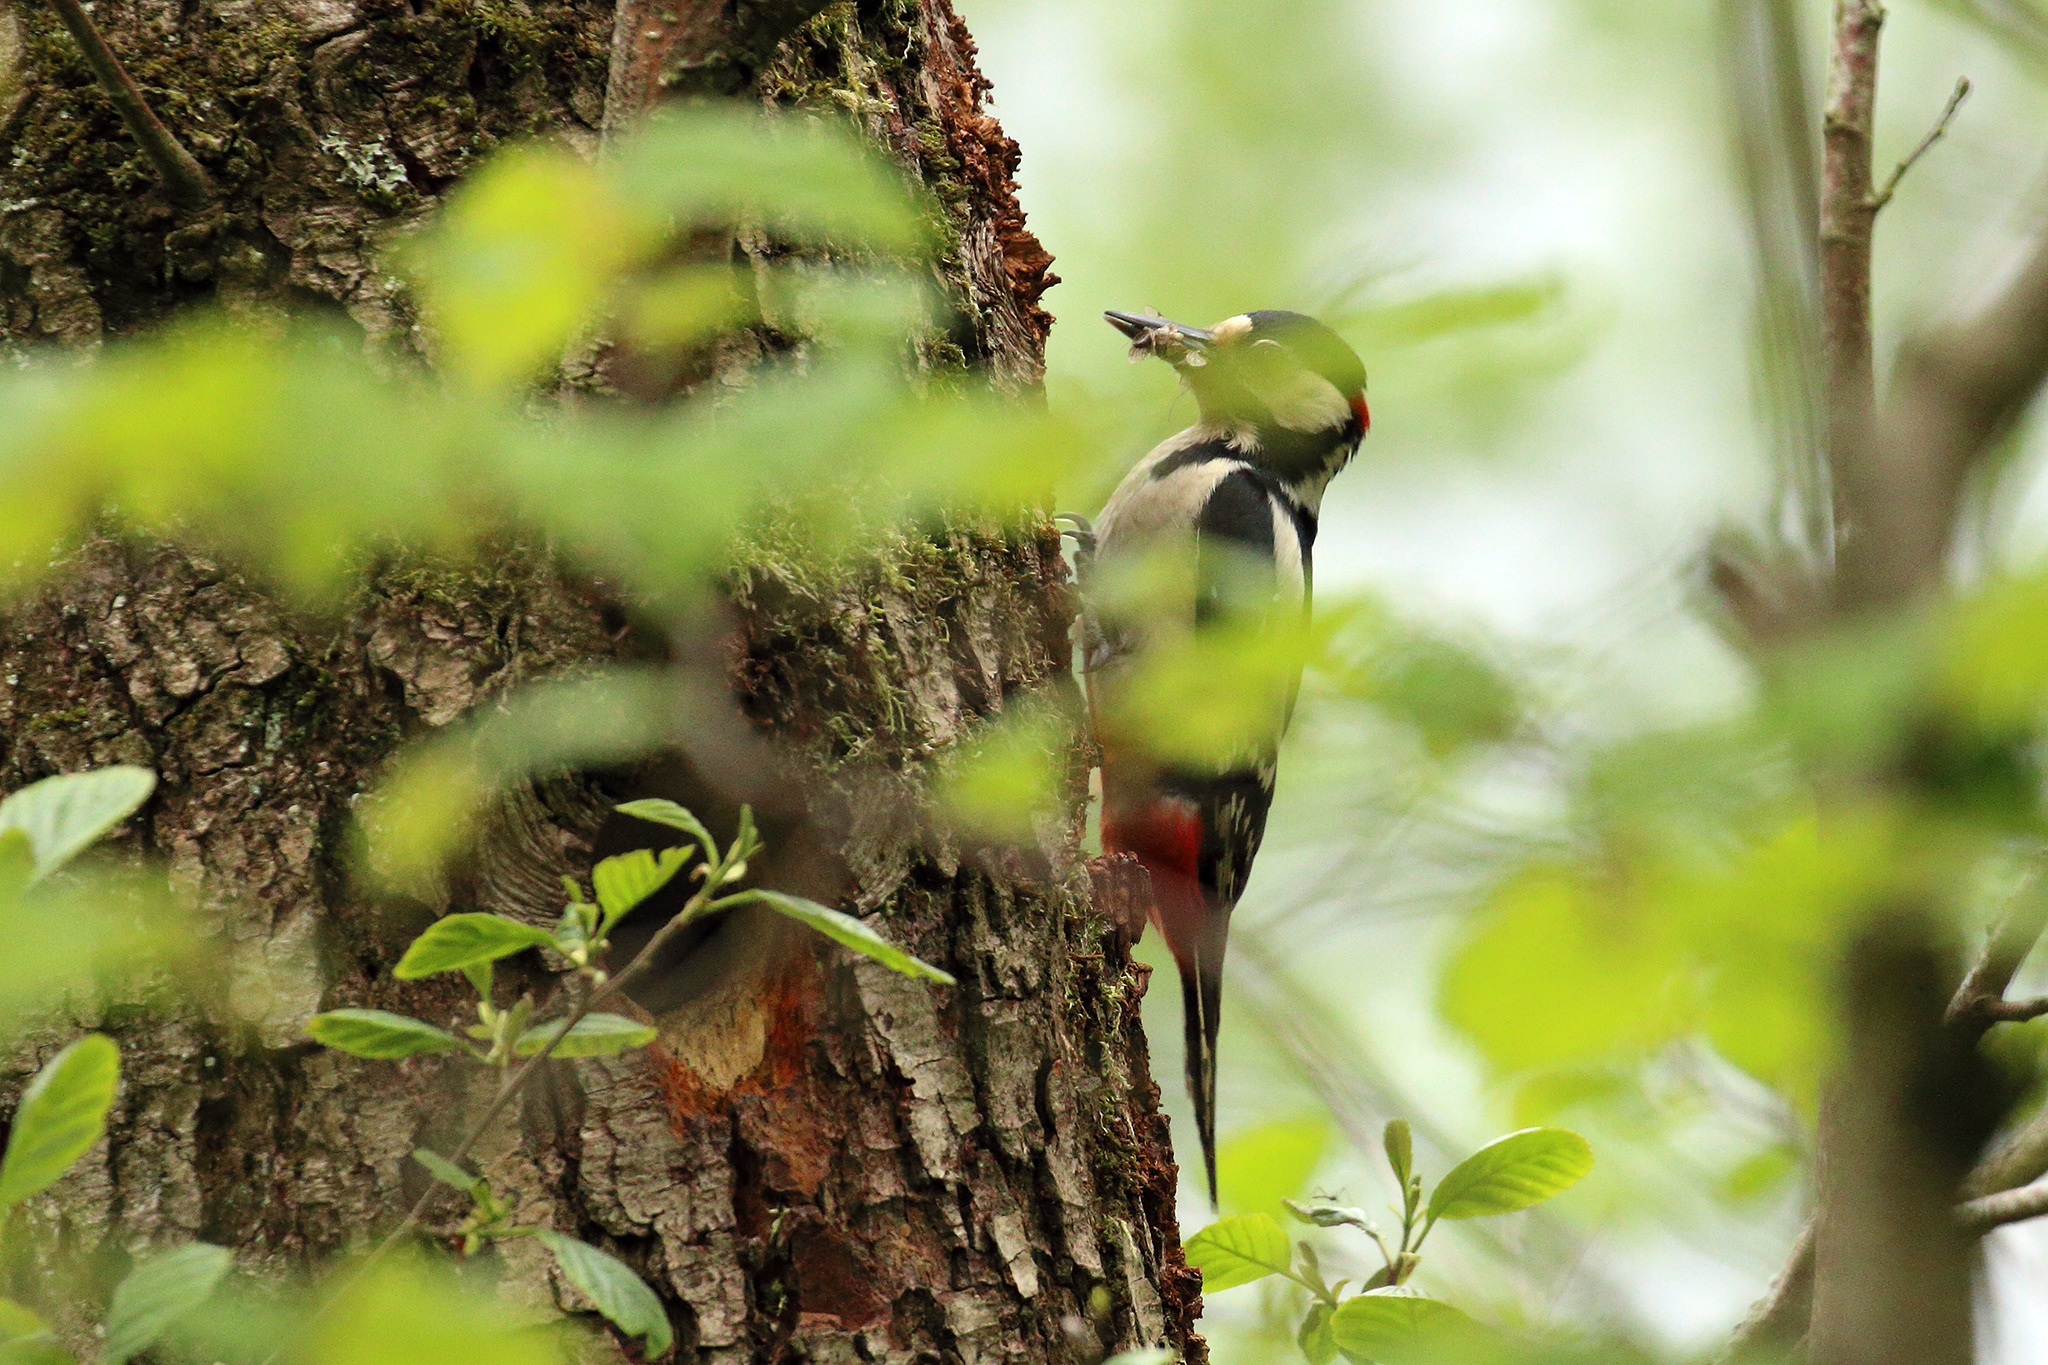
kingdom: Animalia
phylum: Chordata
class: Aves
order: Piciformes
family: Picidae
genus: Dendrocopos
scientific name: Dendrocopos major
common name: Great spotted woodpecker
